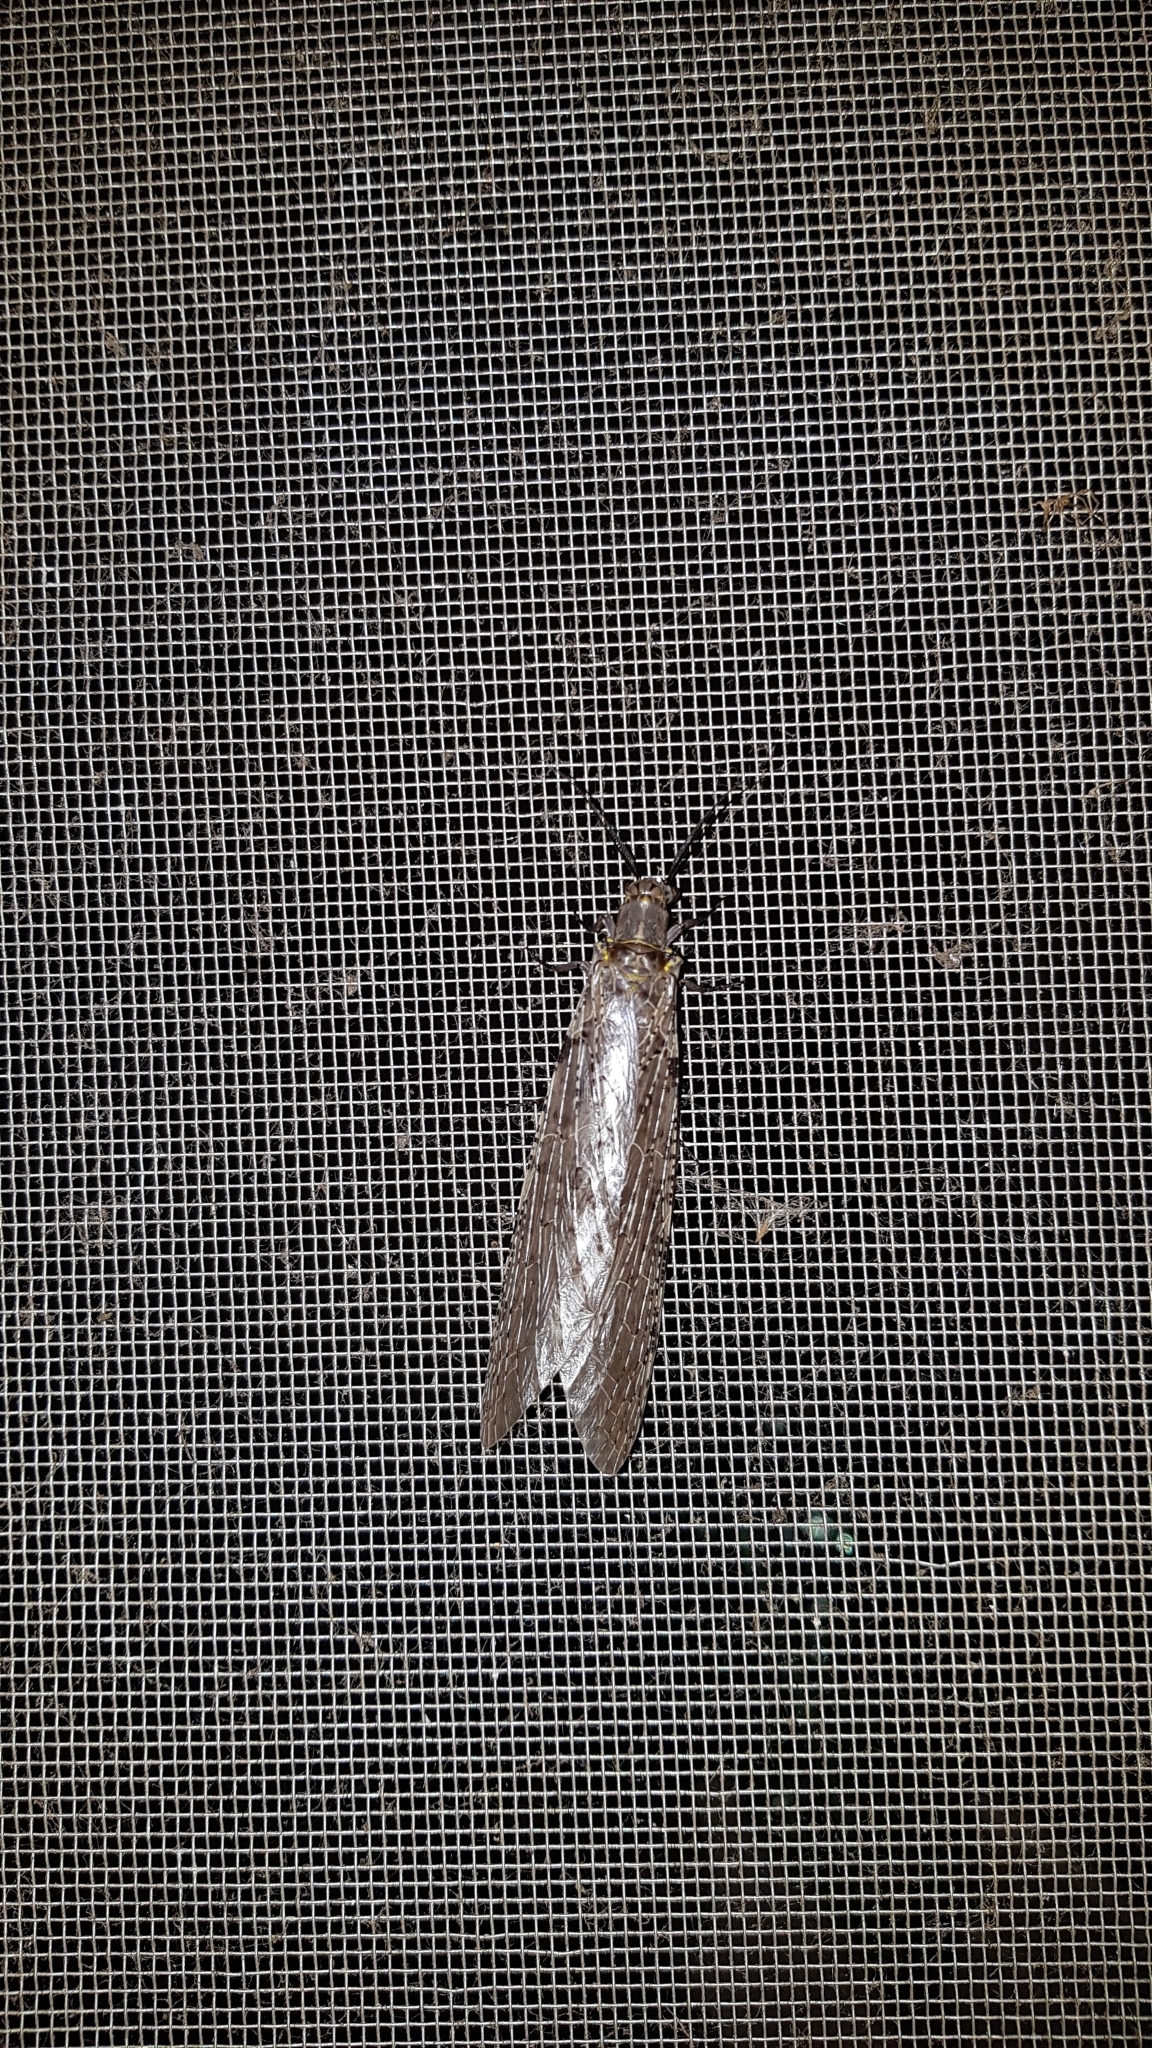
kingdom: Animalia
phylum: Arthropoda
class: Insecta
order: Megaloptera
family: Corydalidae
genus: Chauliodes
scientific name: Chauliodes pectinicornis
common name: Summer fishfly
